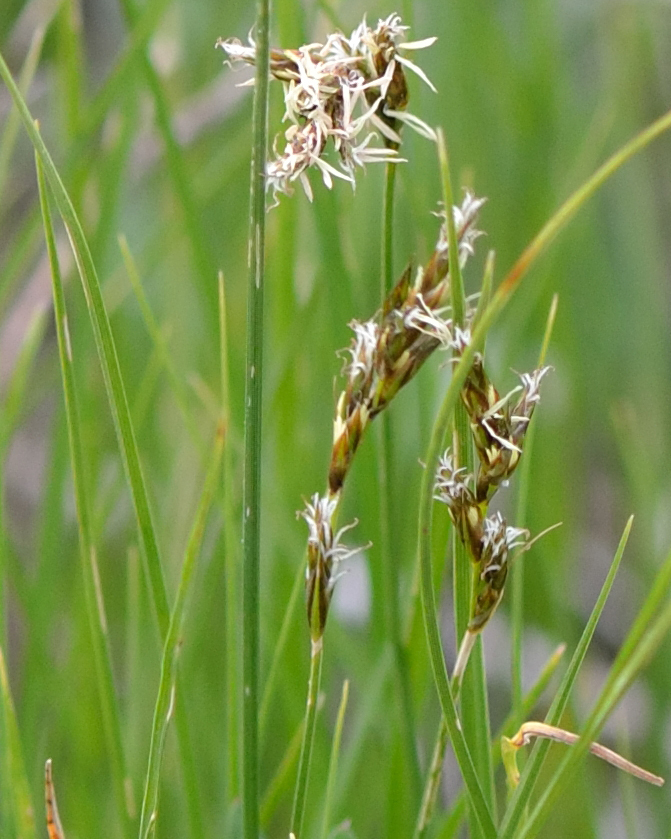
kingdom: Plantae
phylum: Tracheophyta
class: Liliopsida
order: Poales
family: Cyperaceae
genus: Carex
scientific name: Carex praecox
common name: Early sedge
